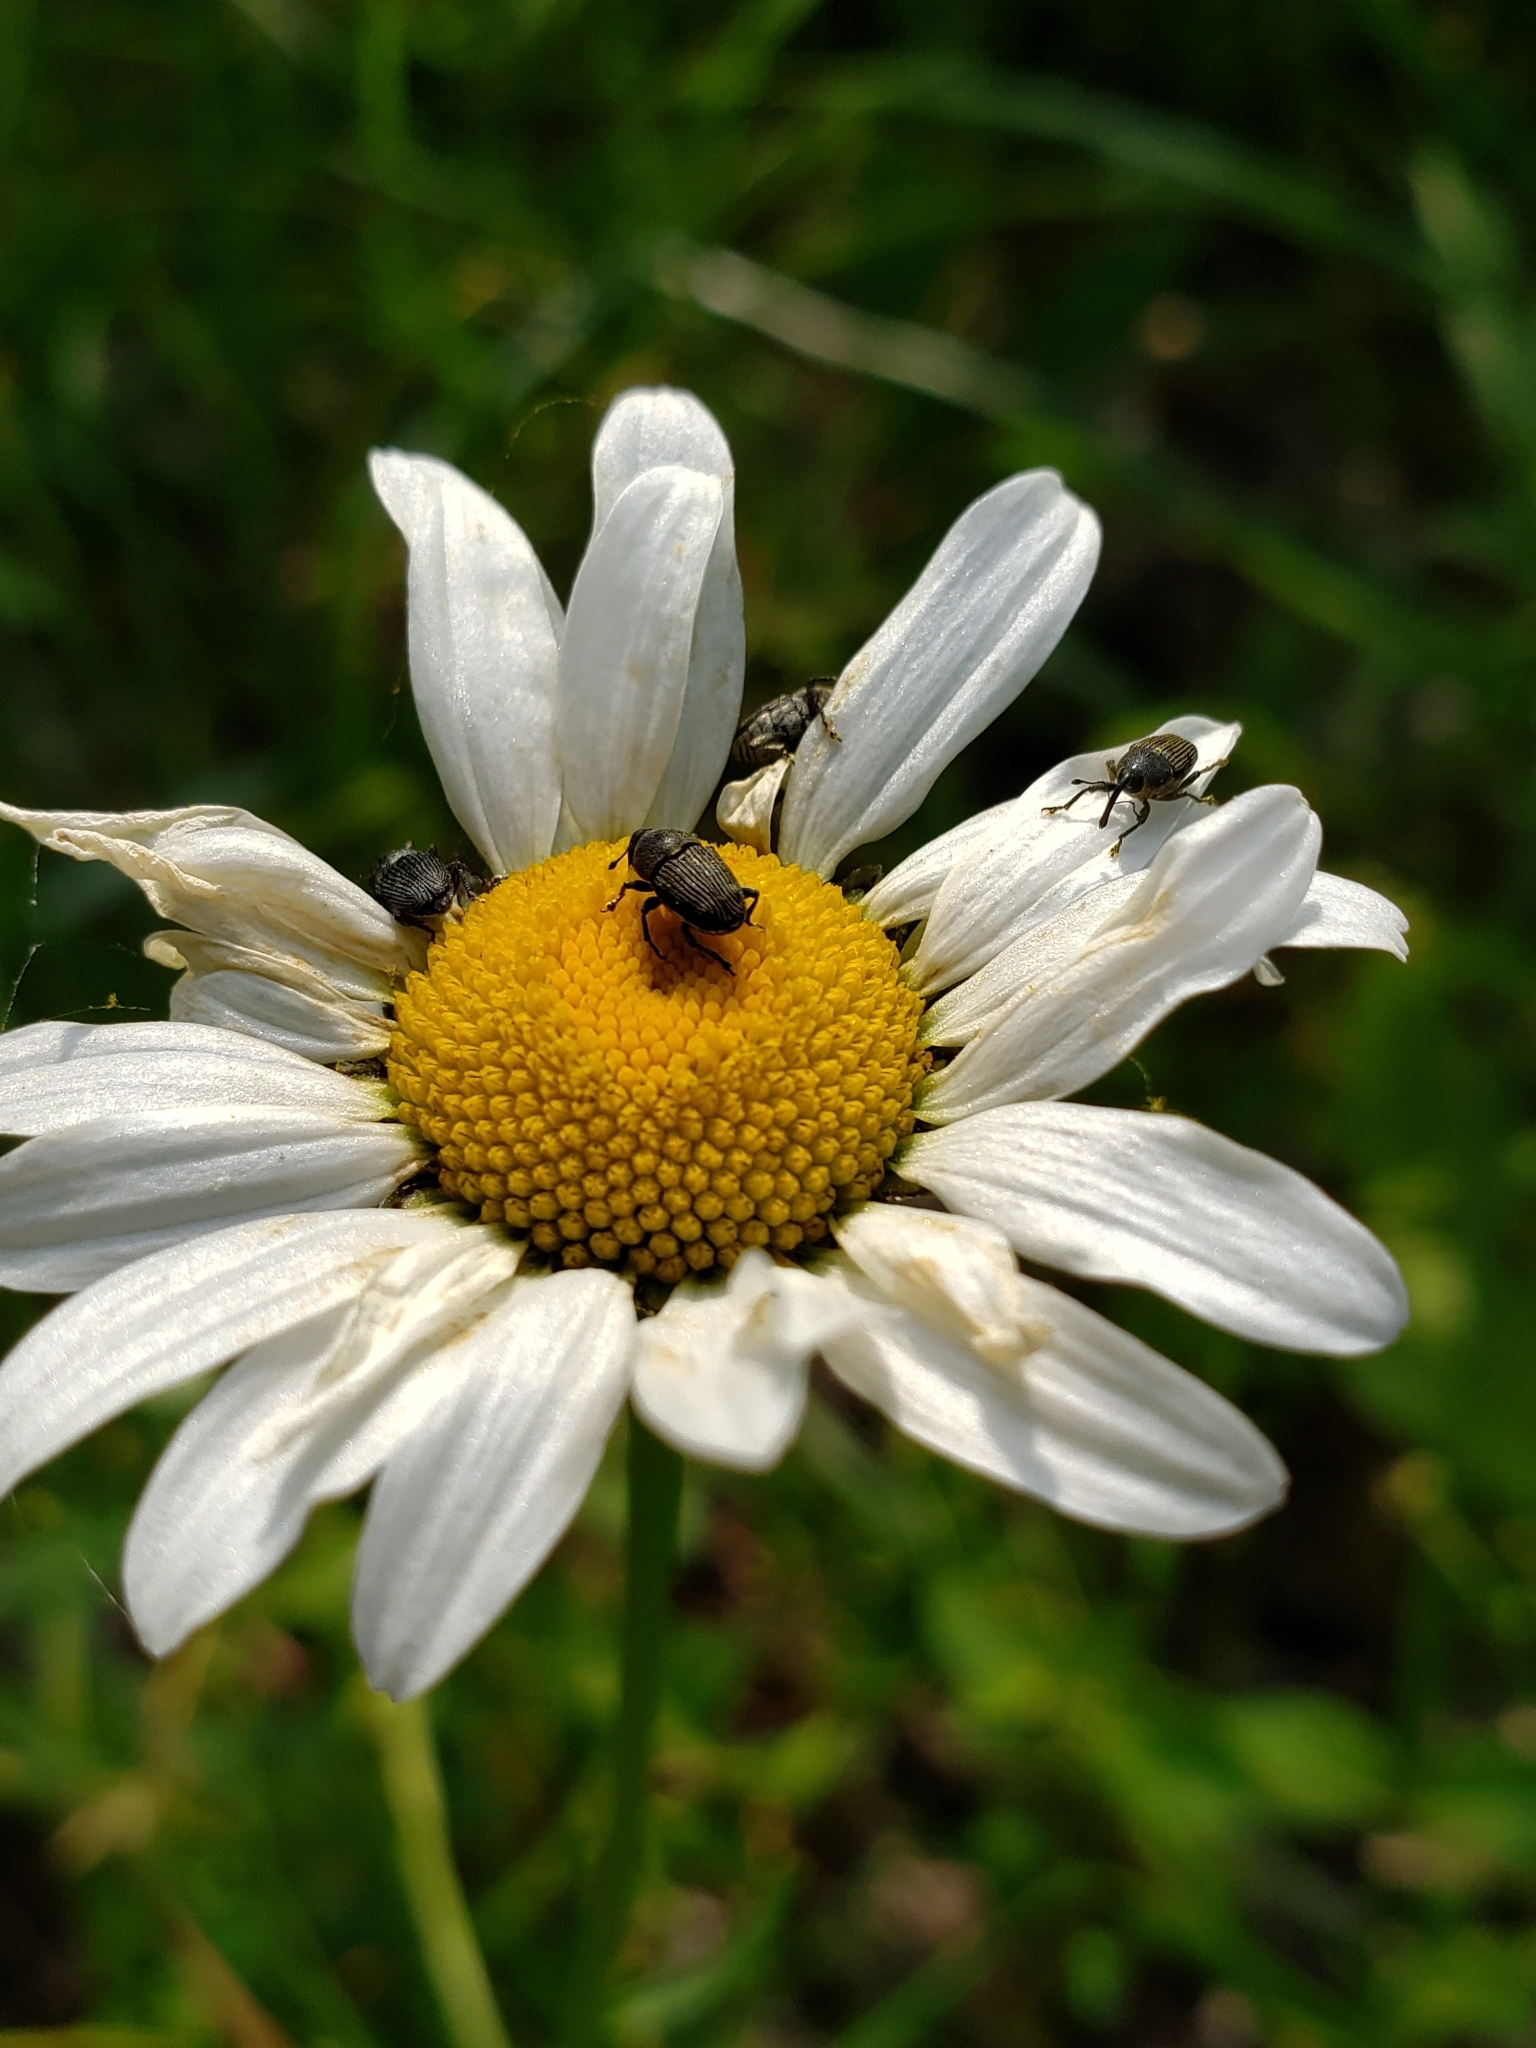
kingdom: Animalia
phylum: Arthropoda
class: Insecta
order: Coleoptera
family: Curculionidae
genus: Odontocorynus
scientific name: Odontocorynus salebrosus
